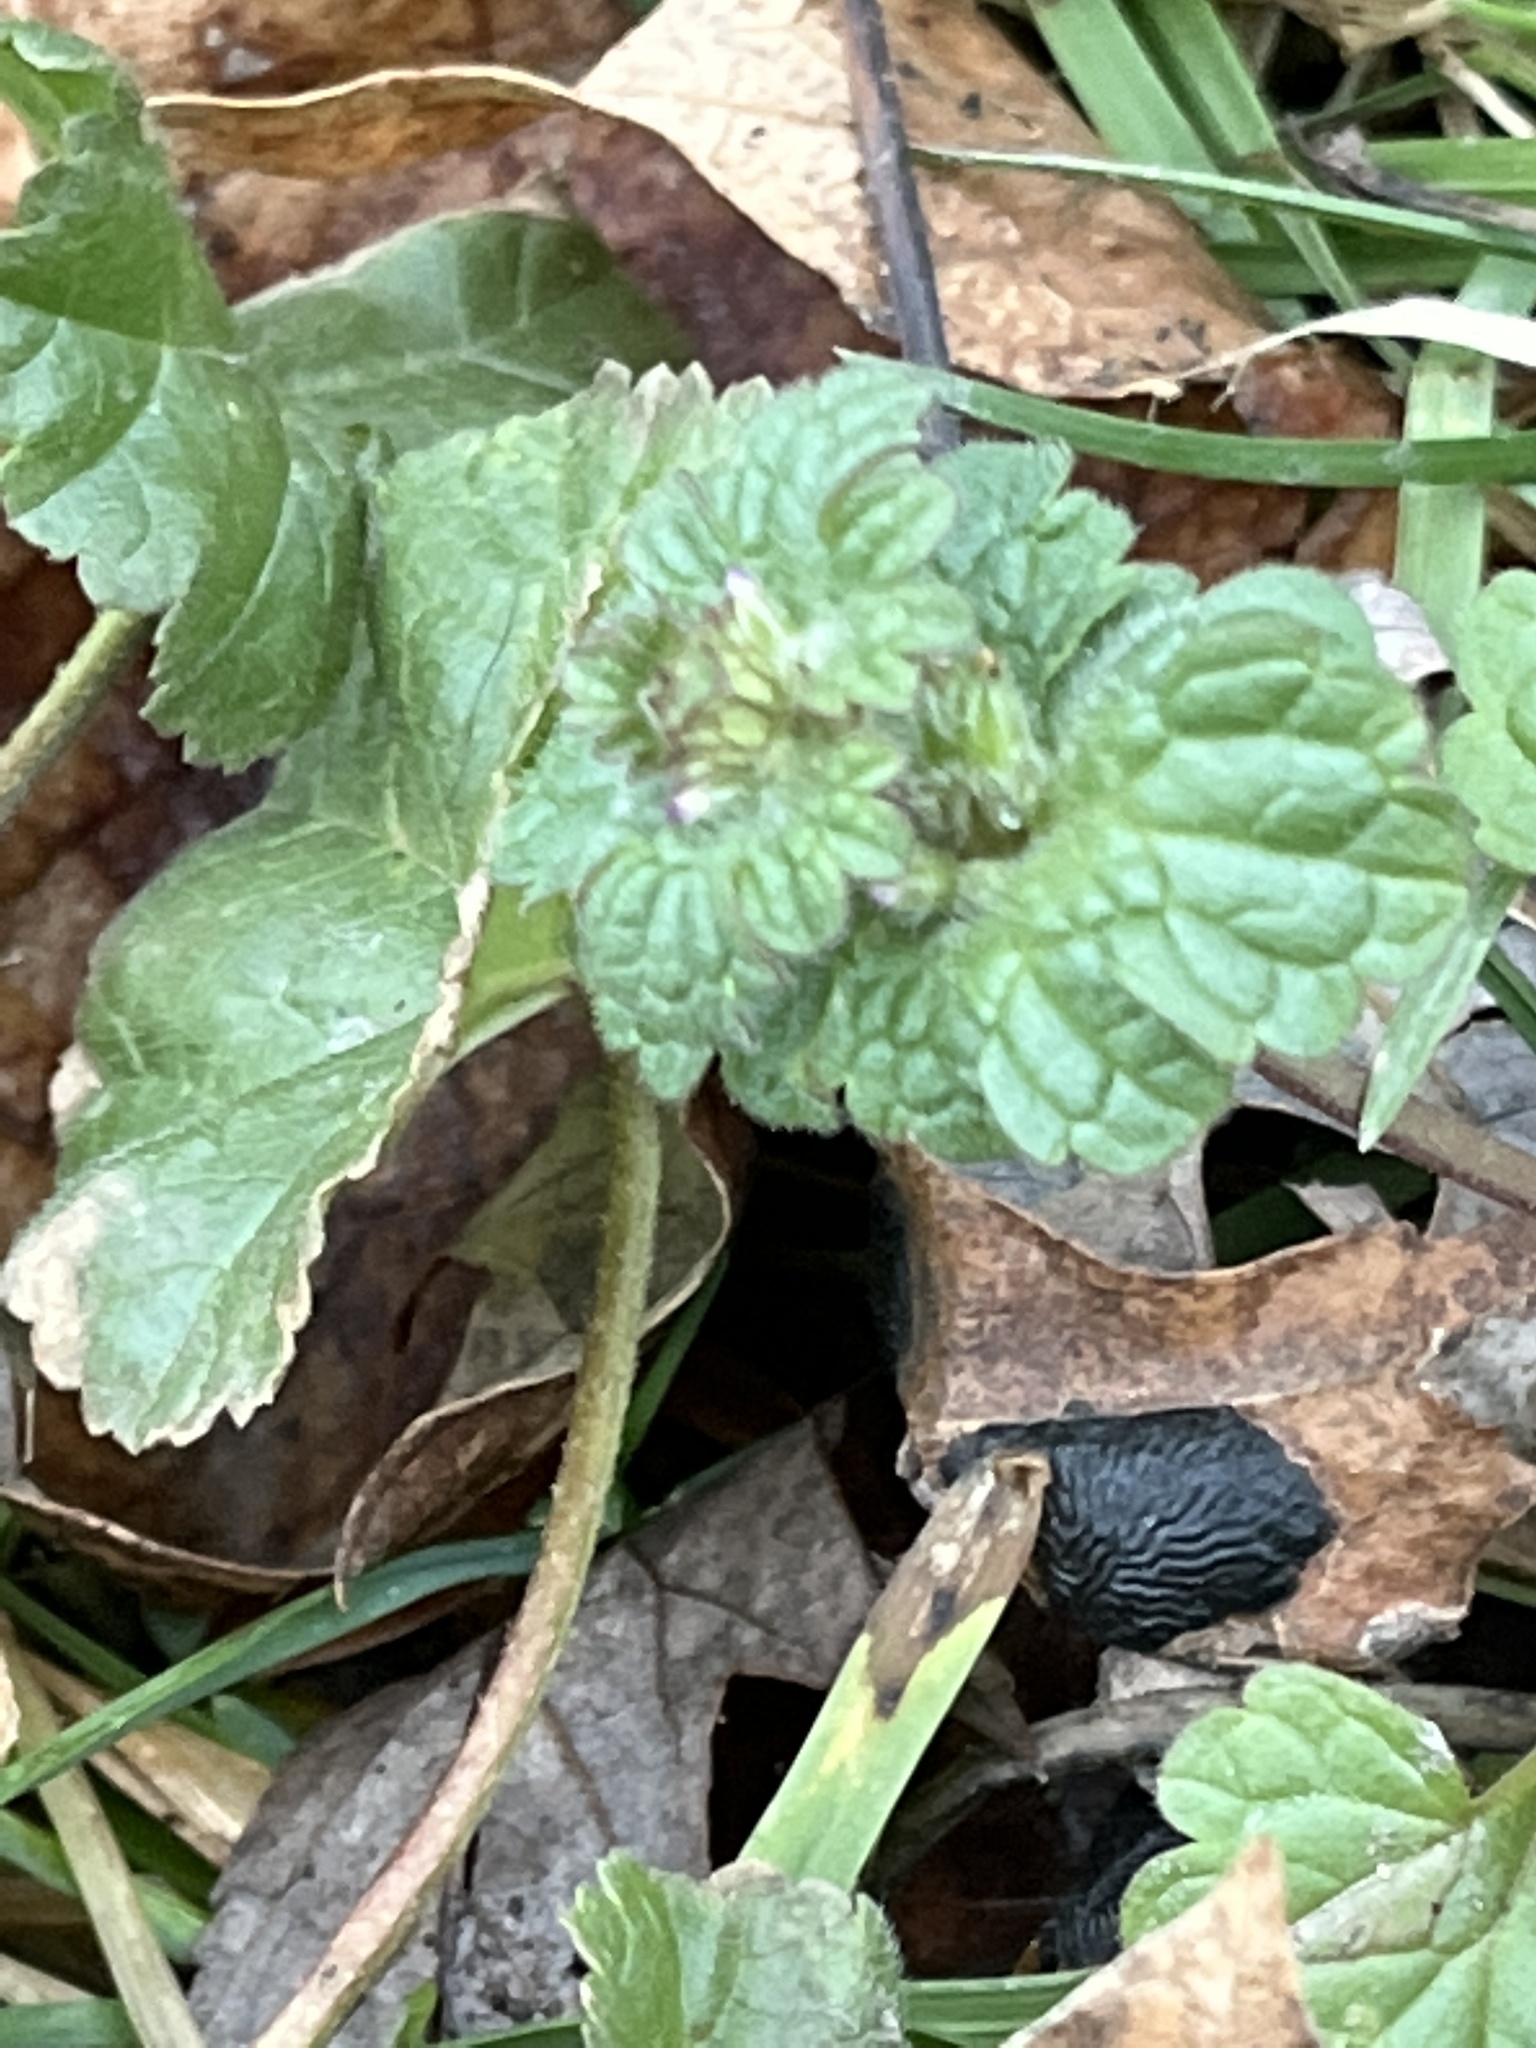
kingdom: Plantae
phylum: Tracheophyta
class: Magnoliopsida
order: Lamiales
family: Lamiaceae
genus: Lamium
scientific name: Lamium amplexicaule
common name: Henbit dead-nettle
